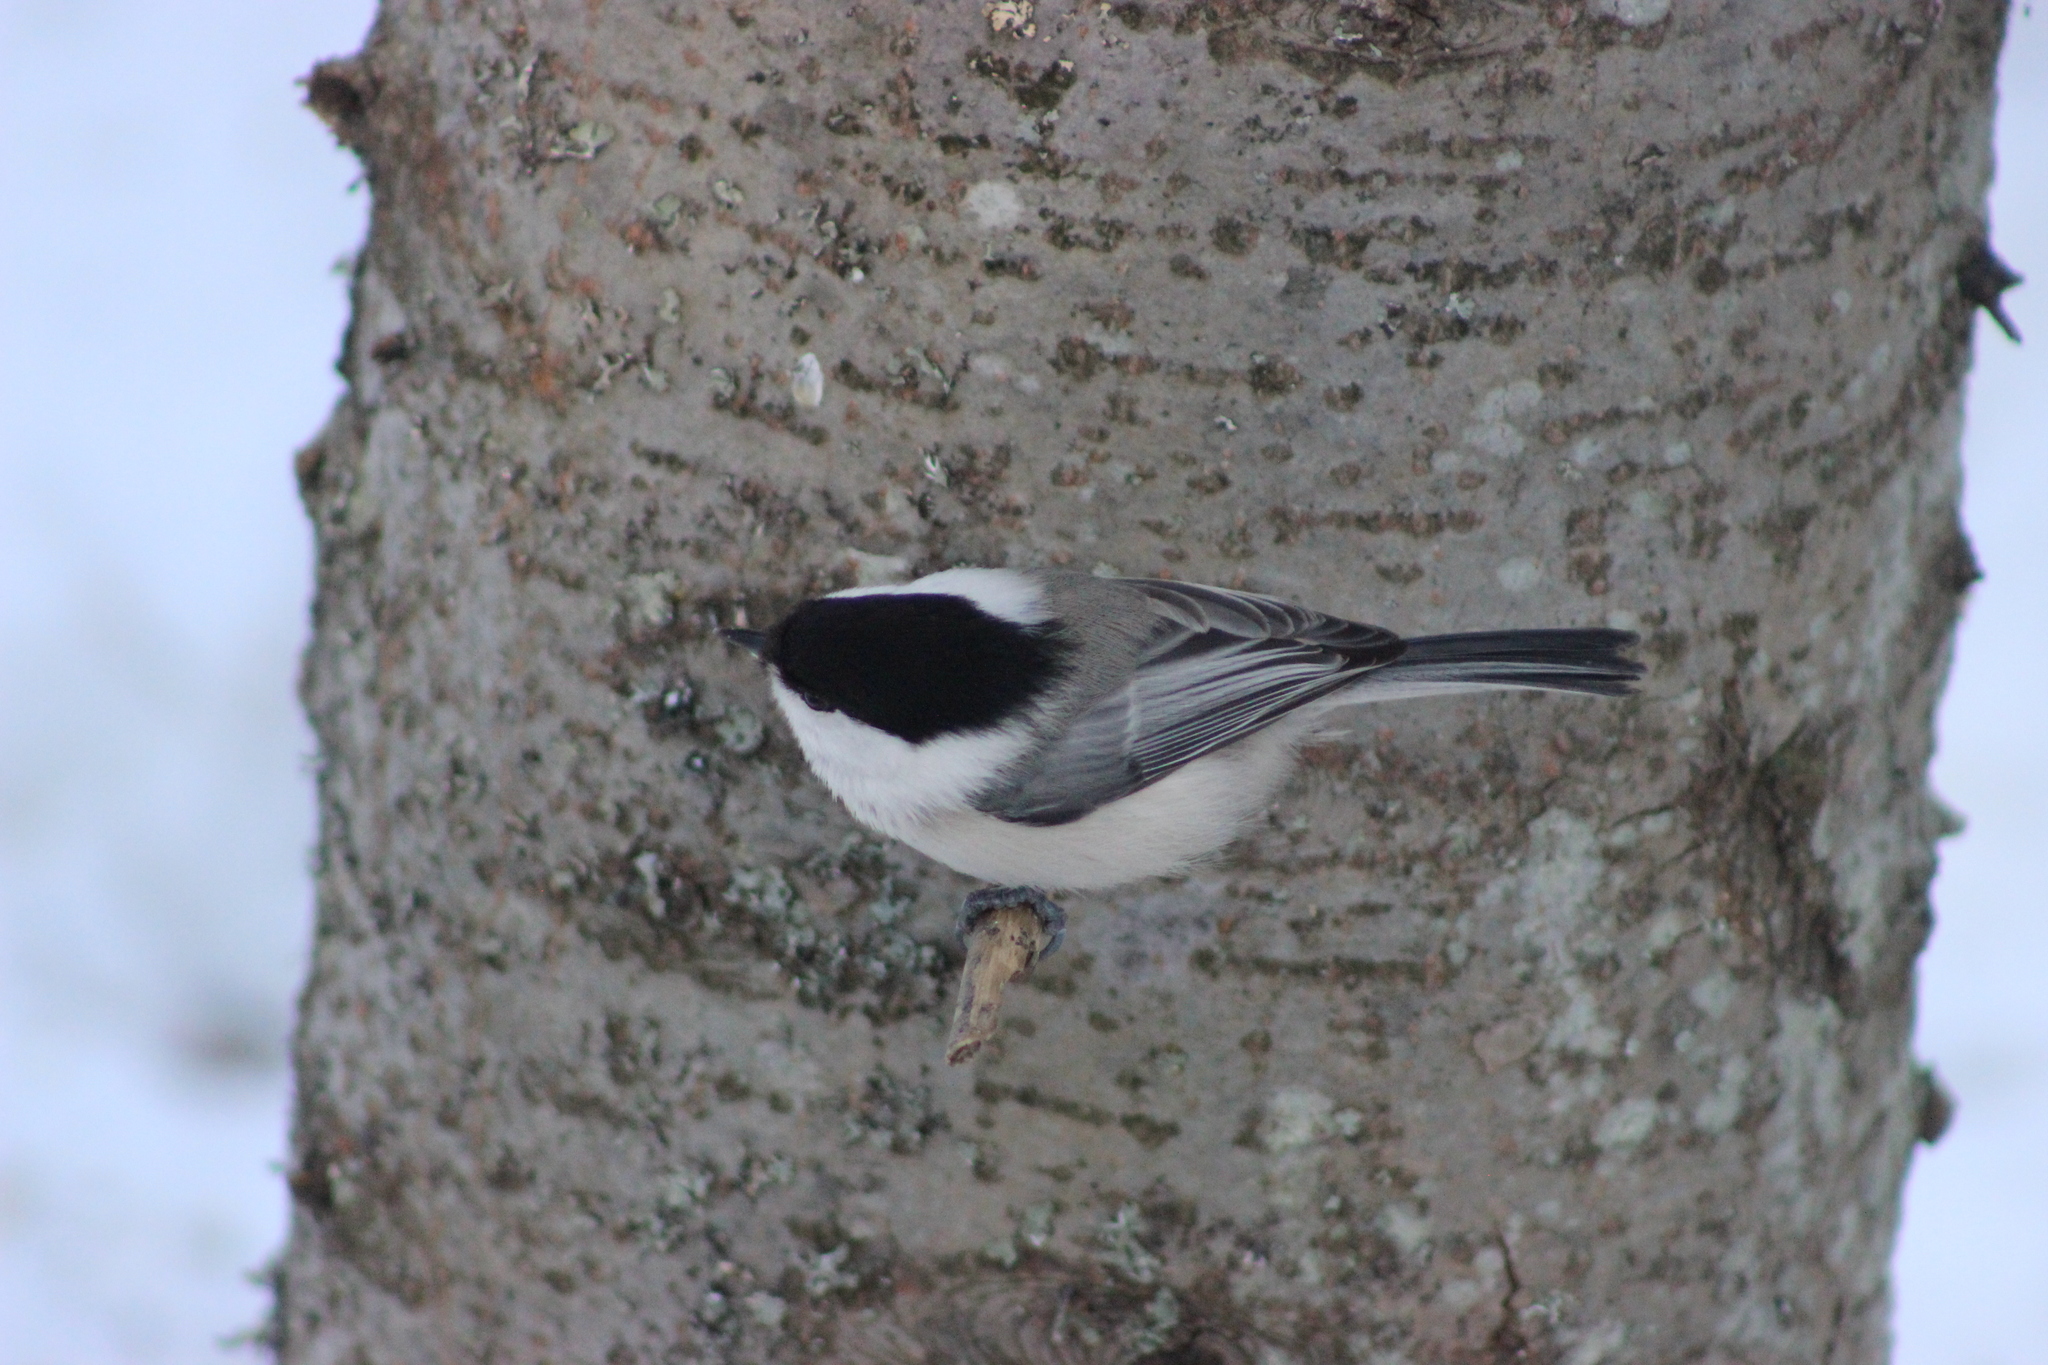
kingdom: Animalia
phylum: Chordata
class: Aves
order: Passeriformes
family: Paridae
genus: Poecile
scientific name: Poecile montanus
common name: Willow tit
